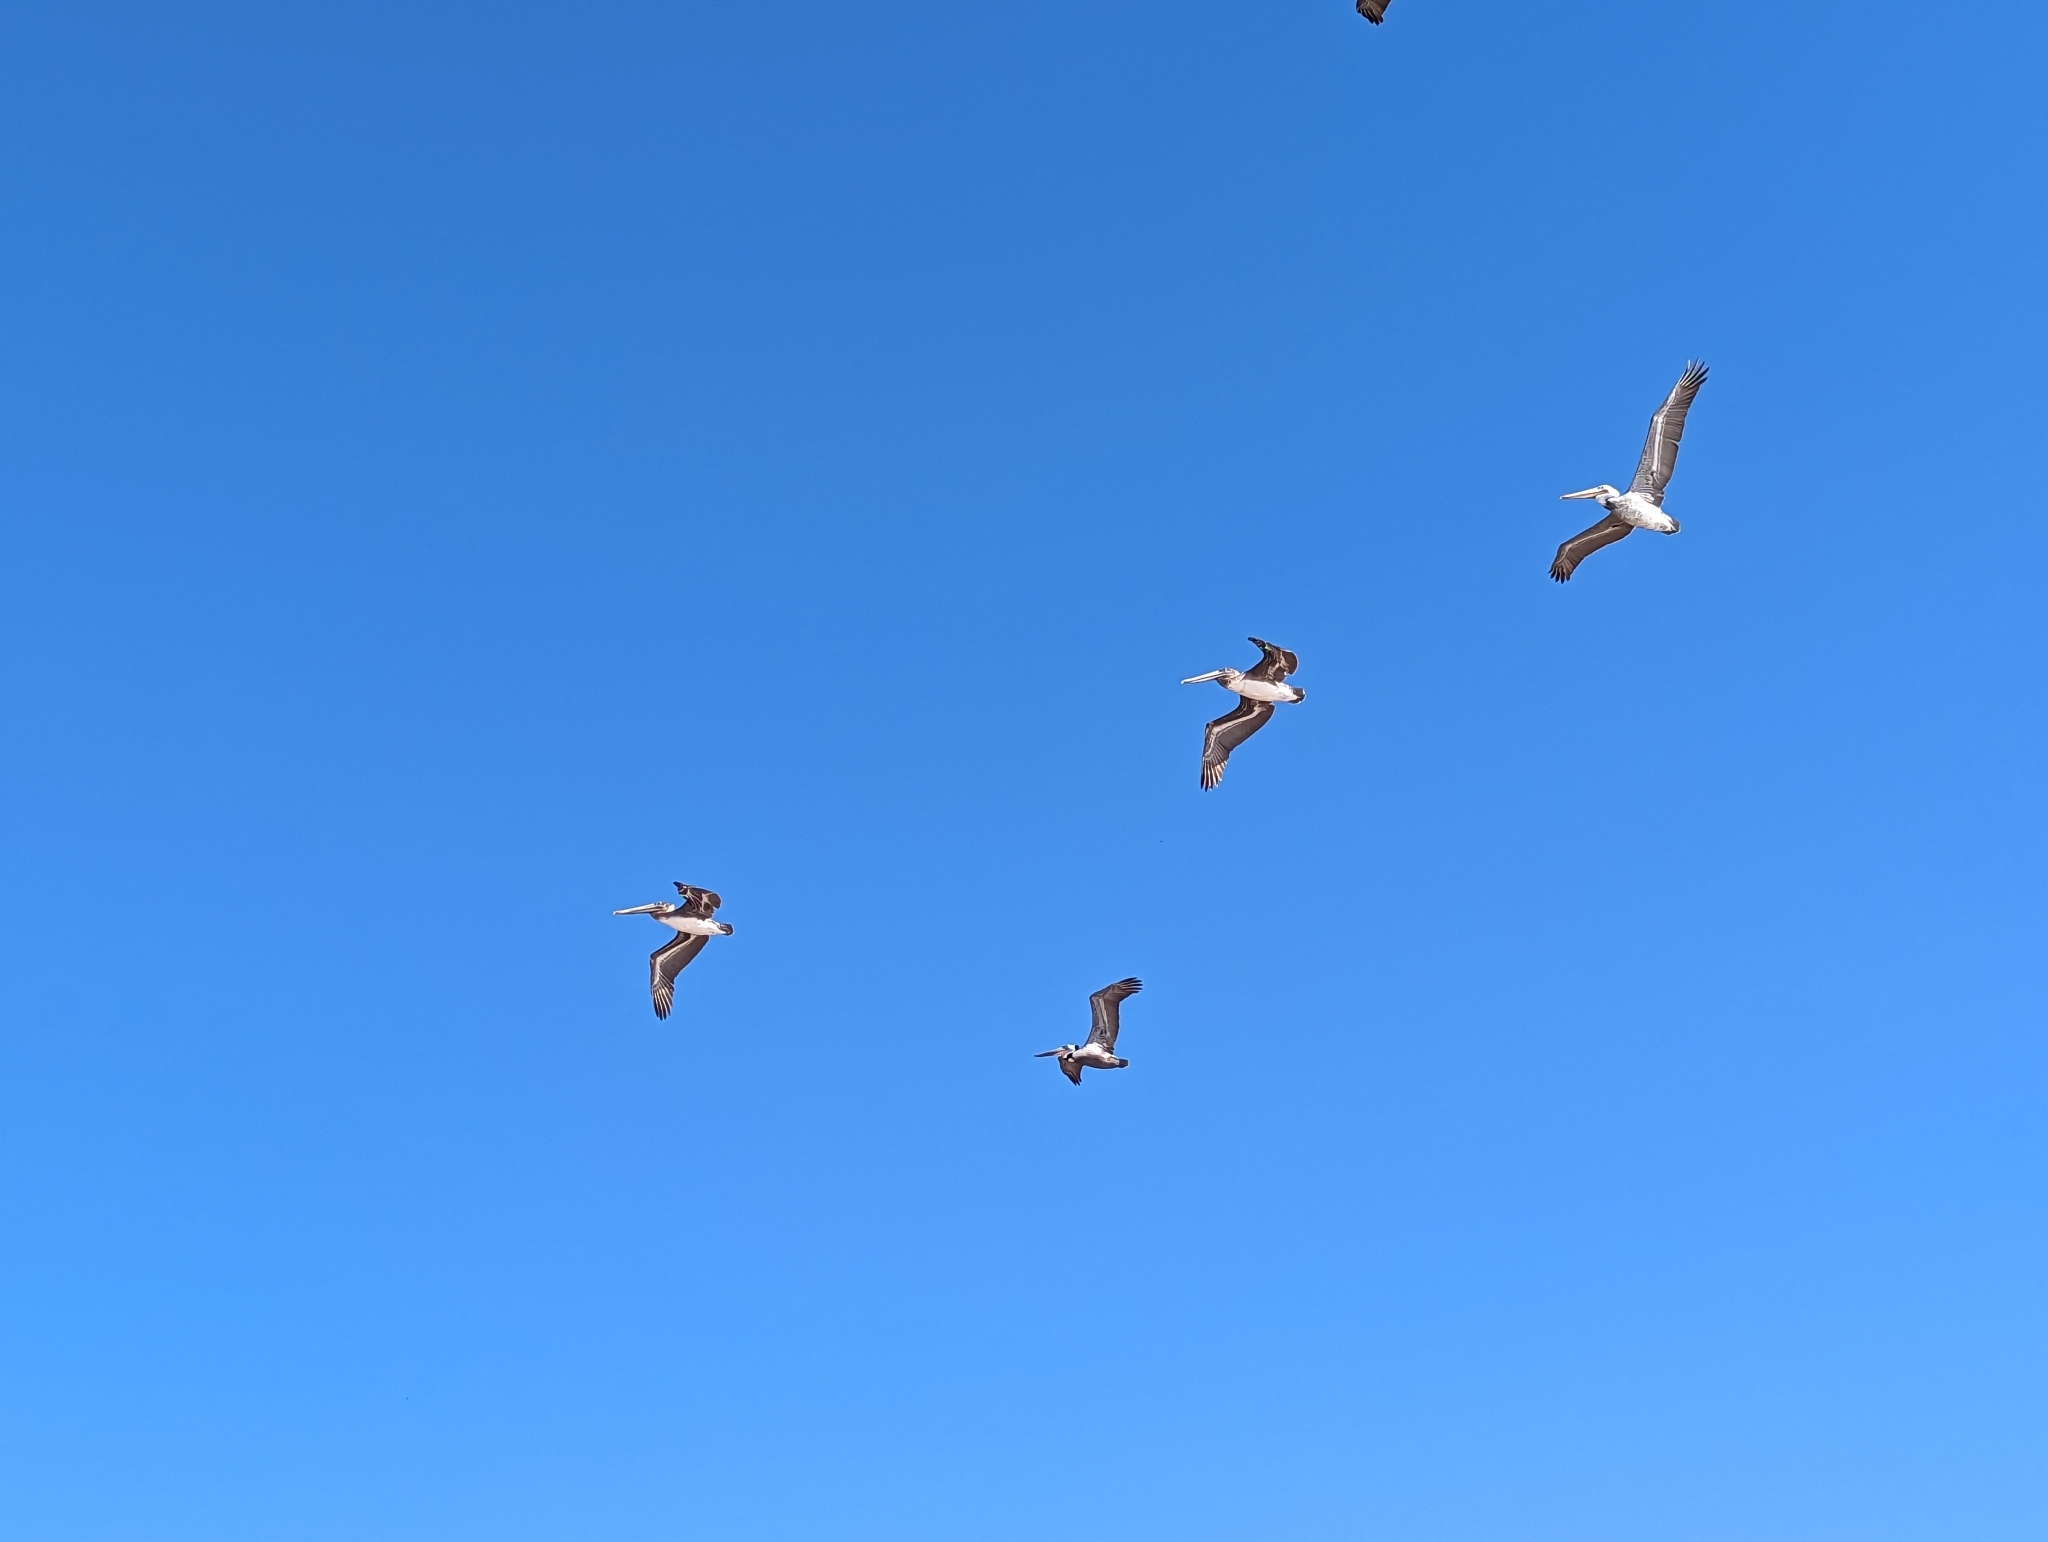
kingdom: Animalia
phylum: Chordata
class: Aves
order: Pelecaniformes
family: Pelecanidae
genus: Pelecanus
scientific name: Pelecanus occidentalis
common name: Brown pelican
